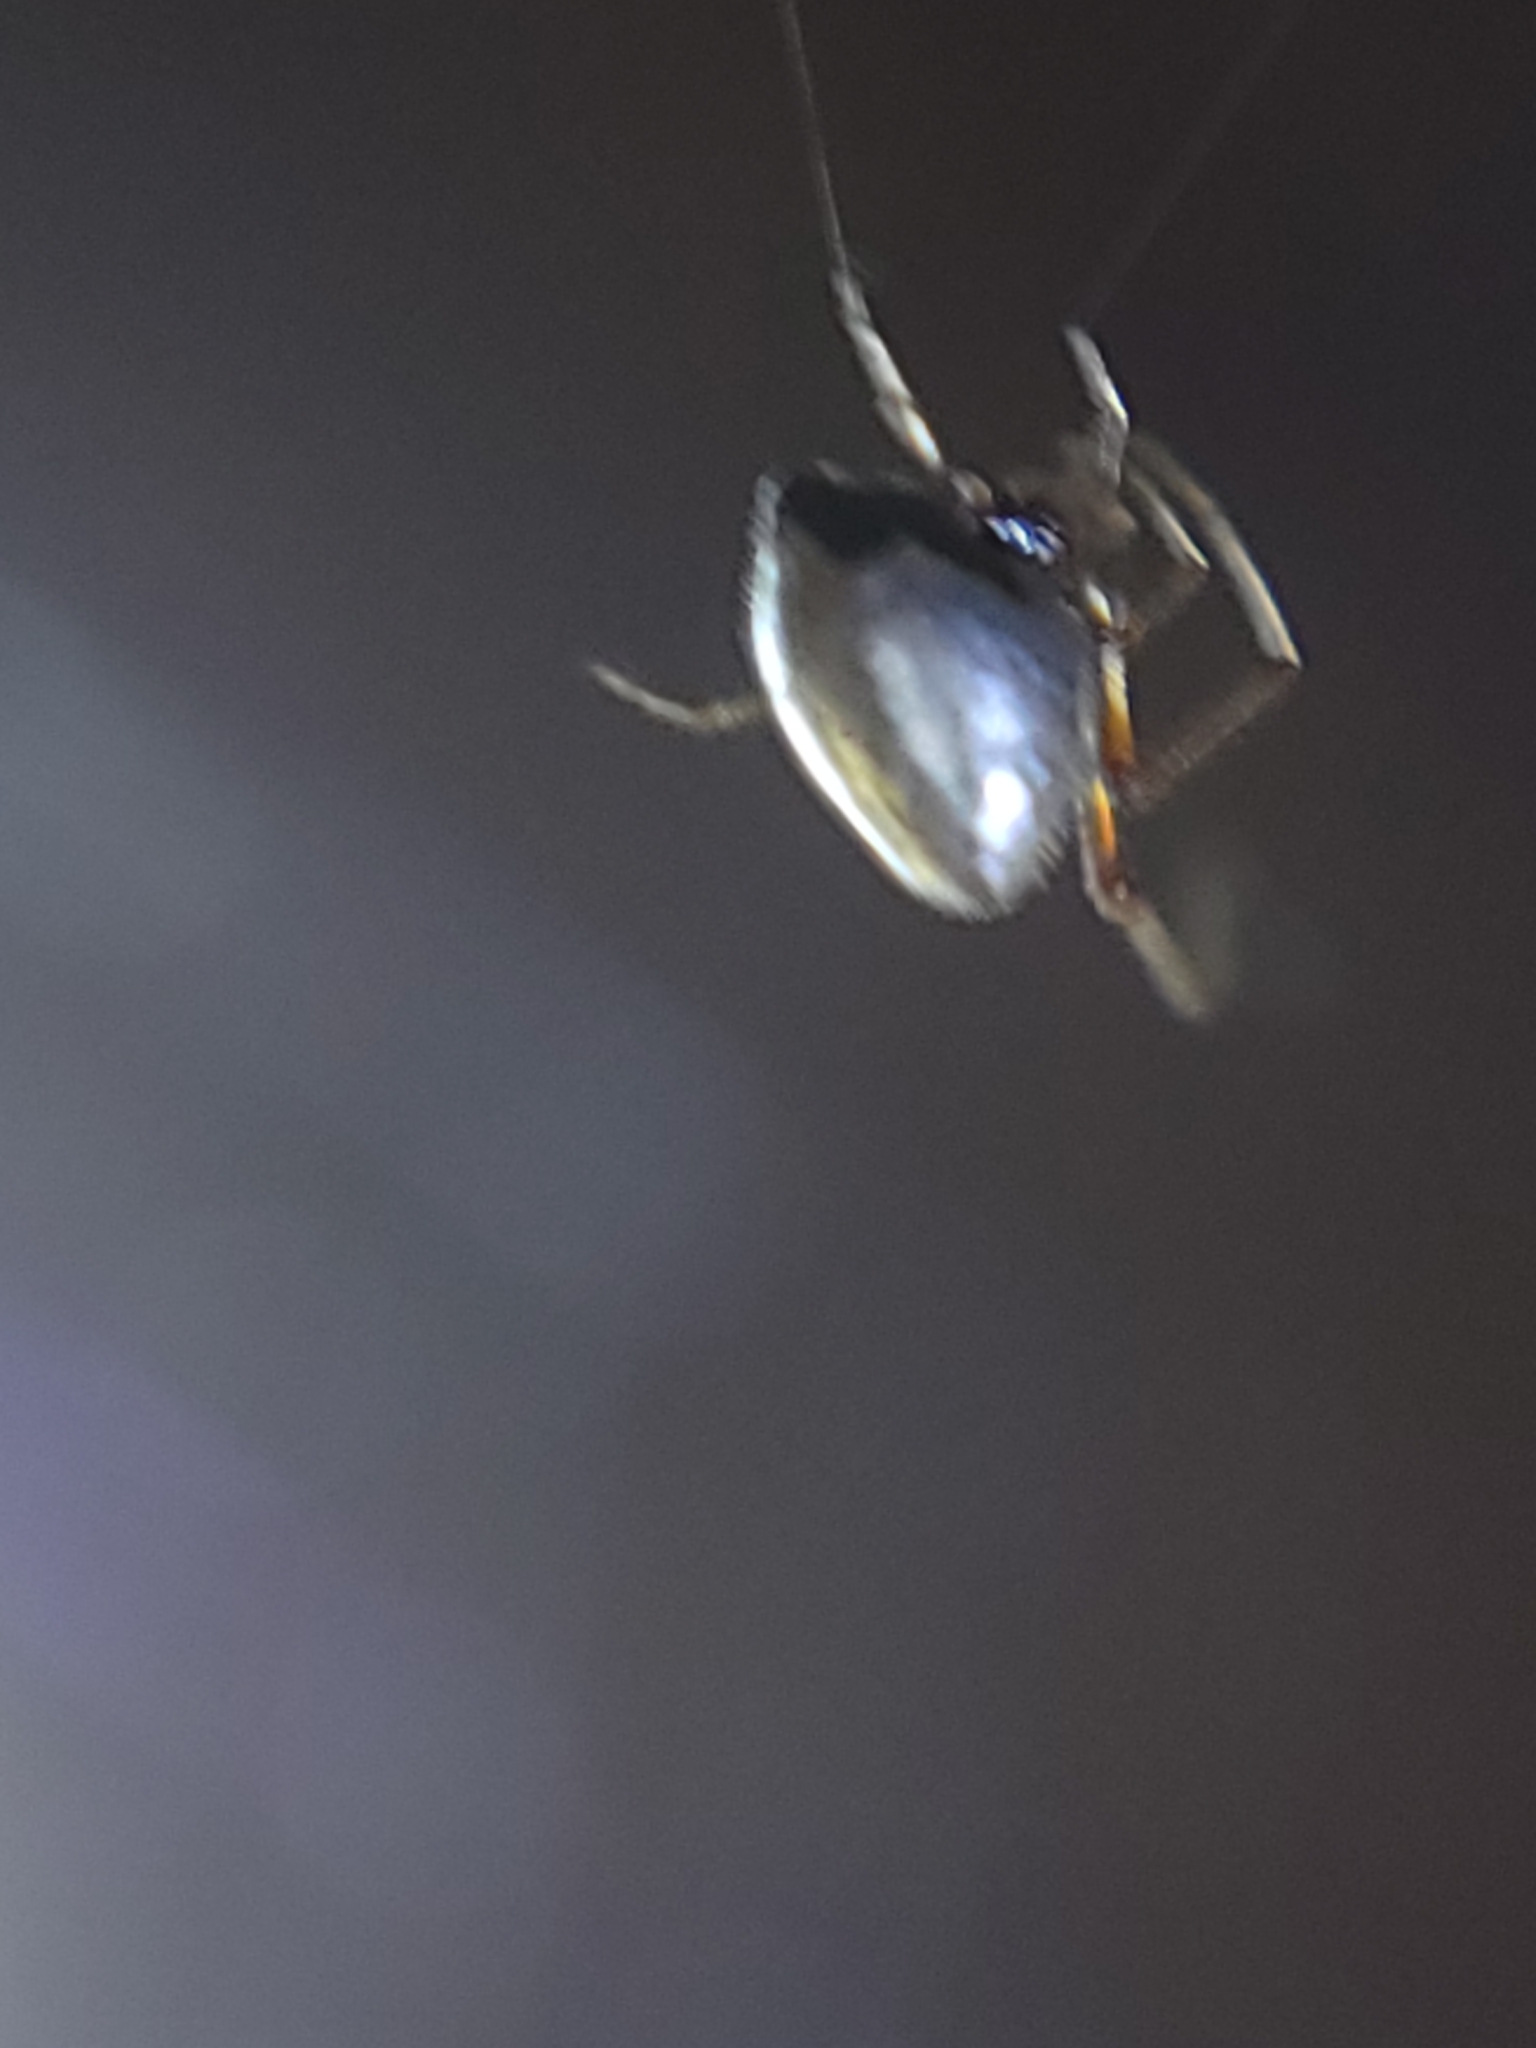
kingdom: Animalia
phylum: Arthropoda
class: Arachnida
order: Araneae
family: Theridiidae
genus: Argyrodes
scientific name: Argyrodes elevatus
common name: Cobweb spiders
